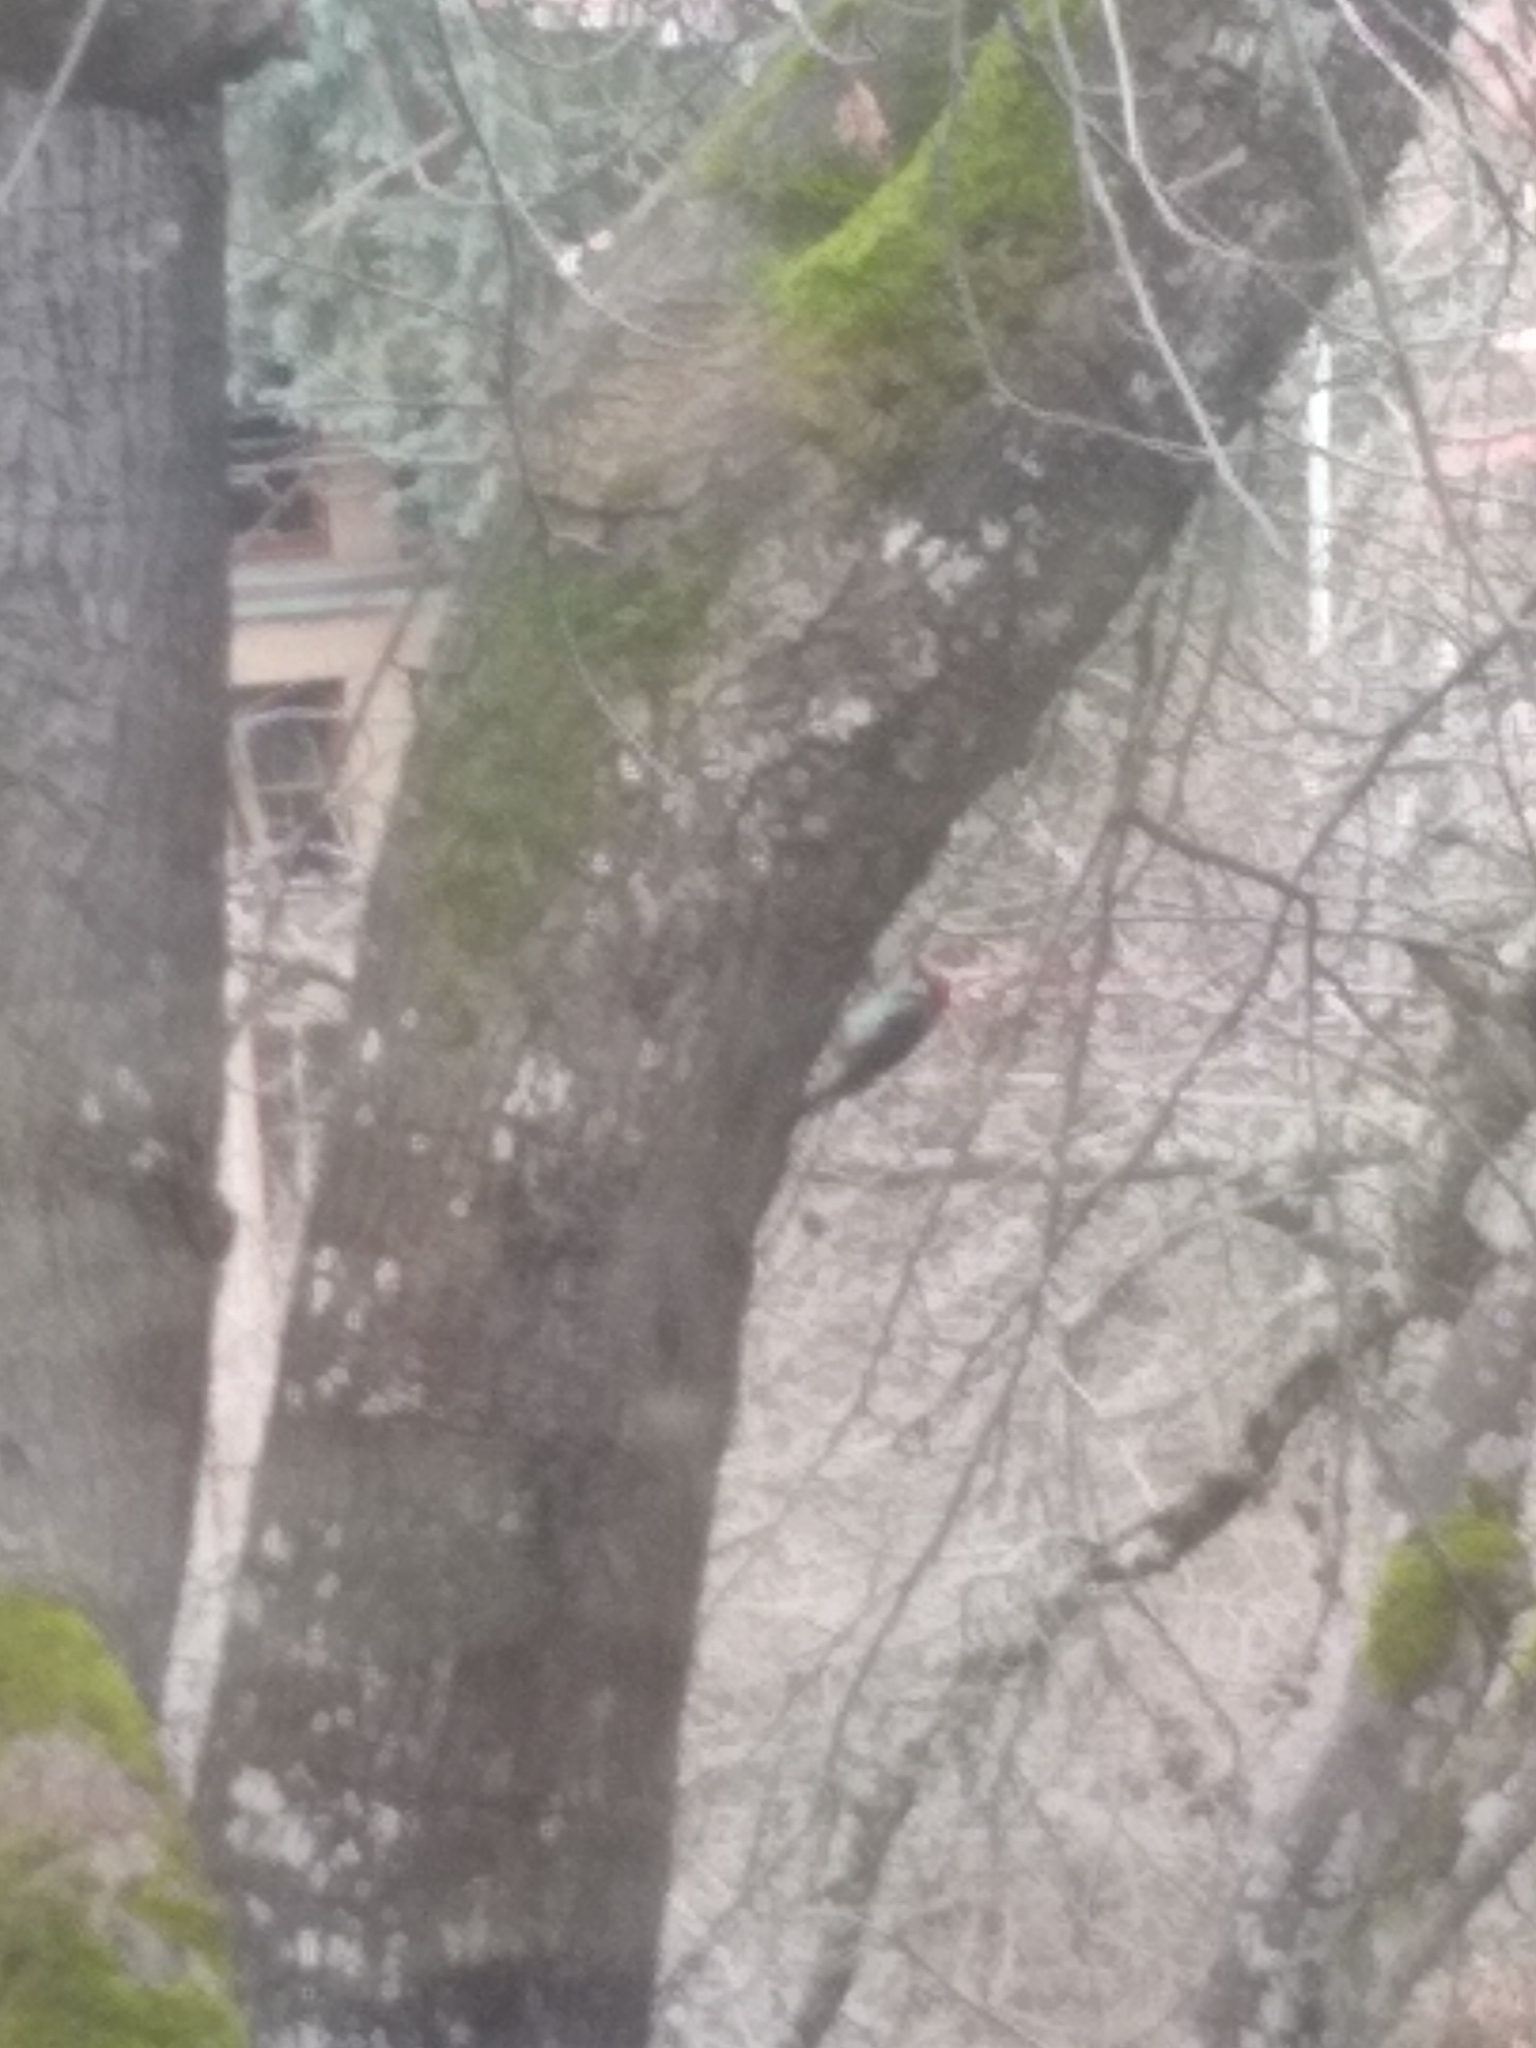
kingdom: Animalia
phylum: Chordata
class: Aves
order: Piciformes
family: Picidae
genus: Melanerpes
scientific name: Melanerpes formicivorus
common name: Acorn woodpecker
